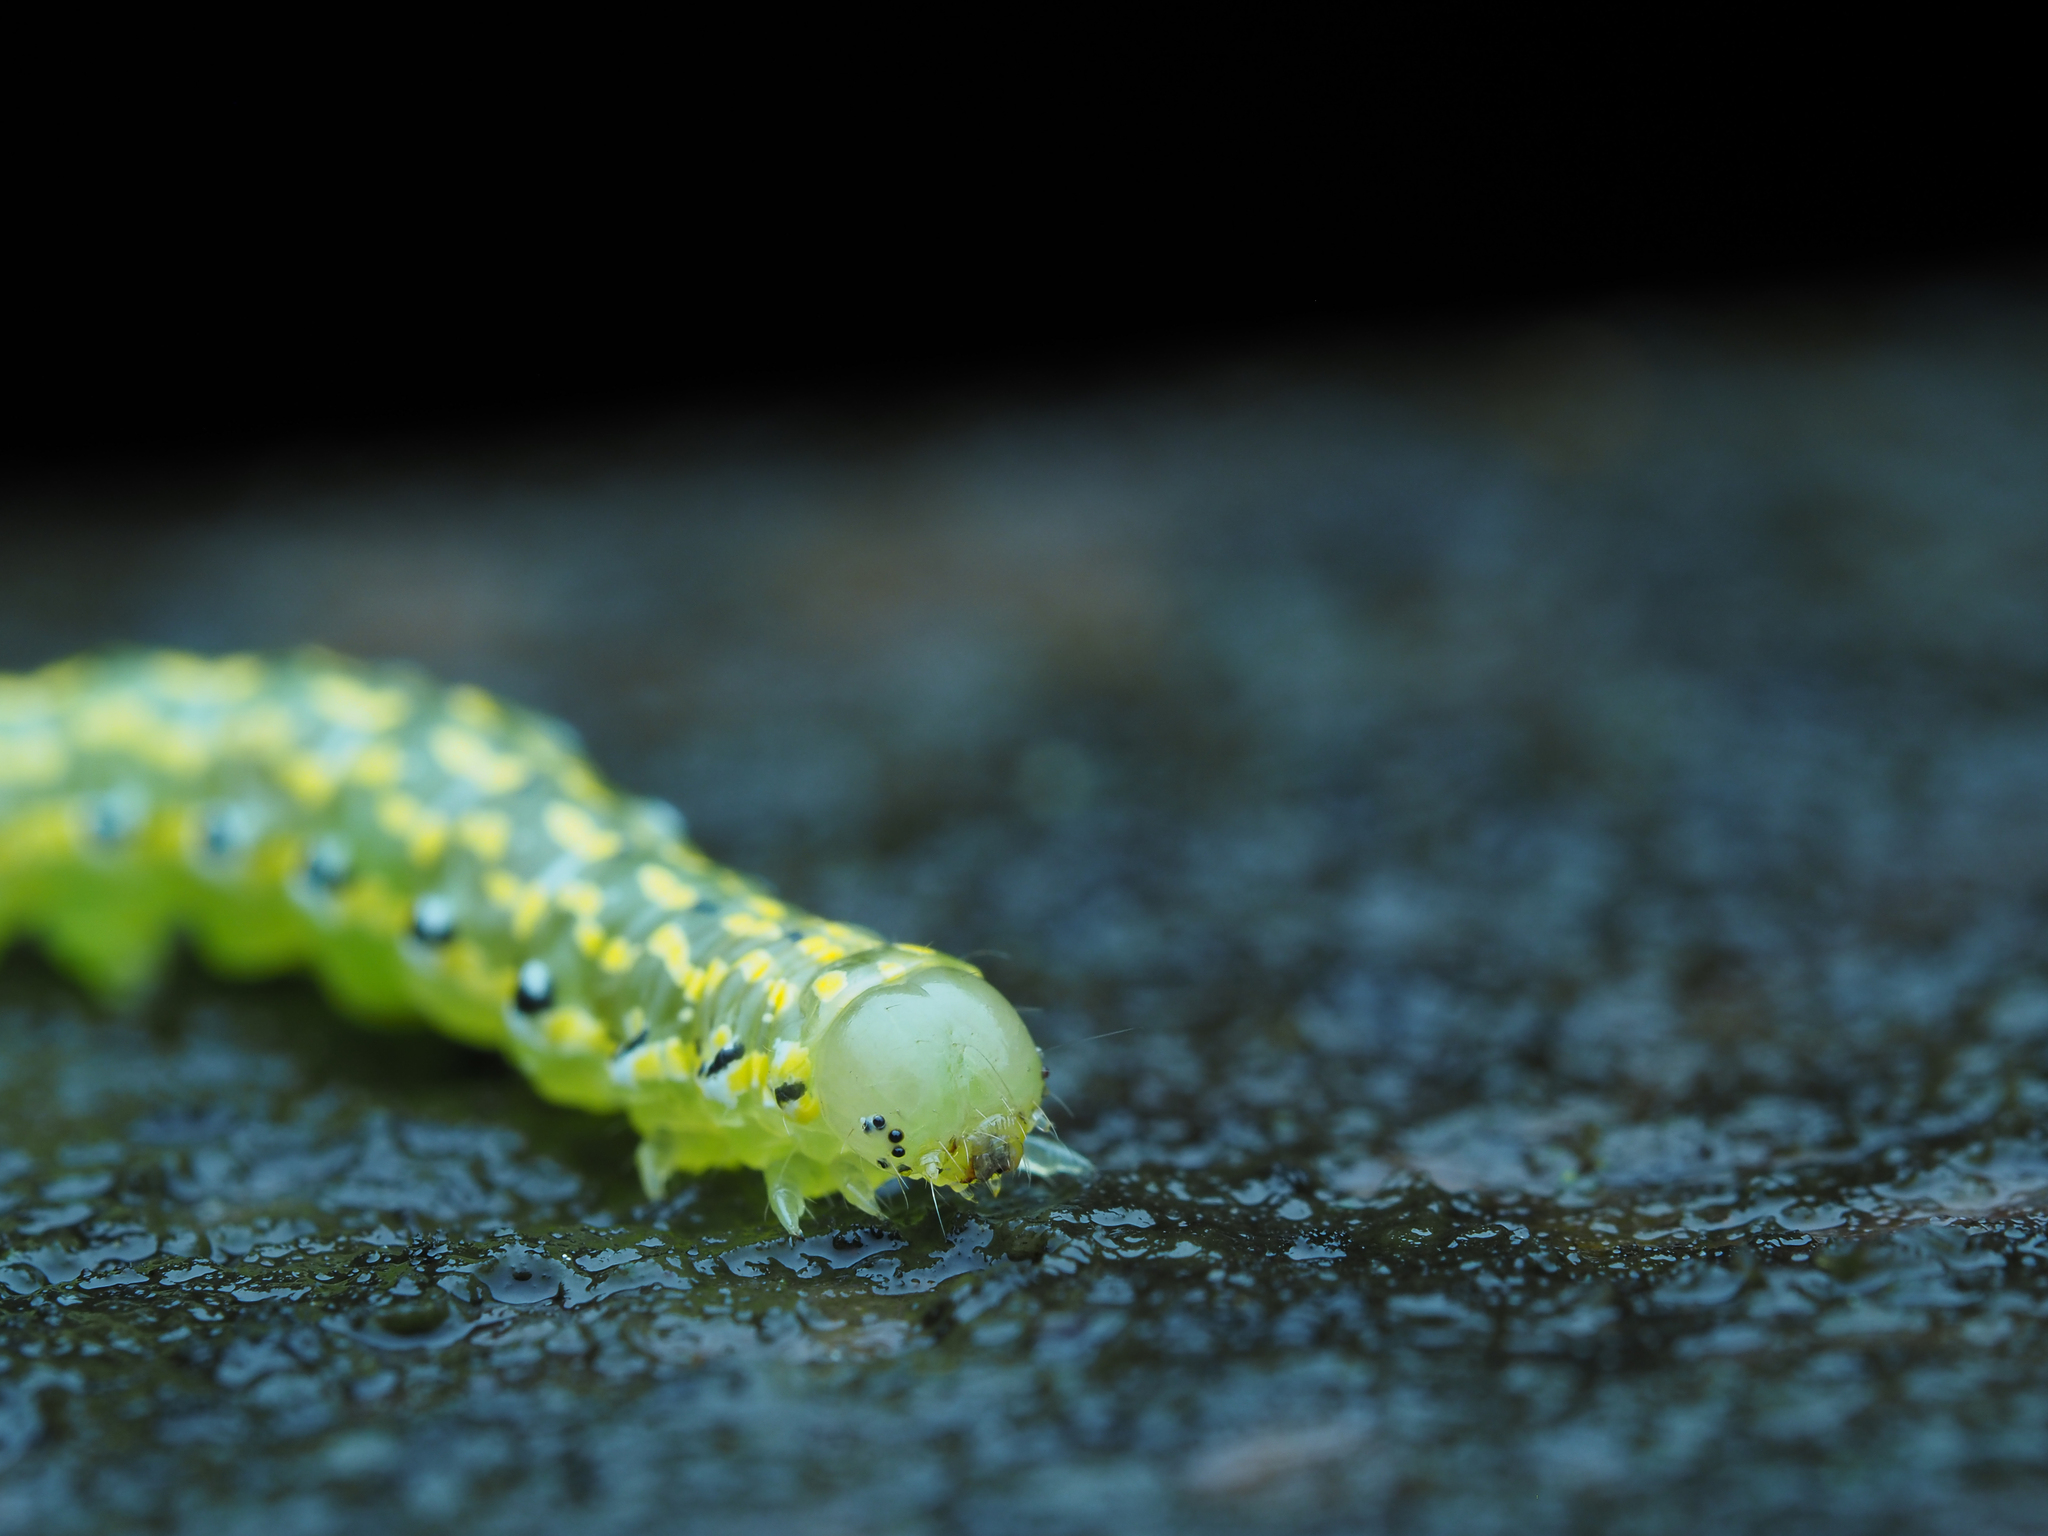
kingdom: Animalia
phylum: Arthropoda
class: Insecta
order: Lepidoptera
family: Noctuidae
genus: Austramathes
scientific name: Austramathes purpurea
